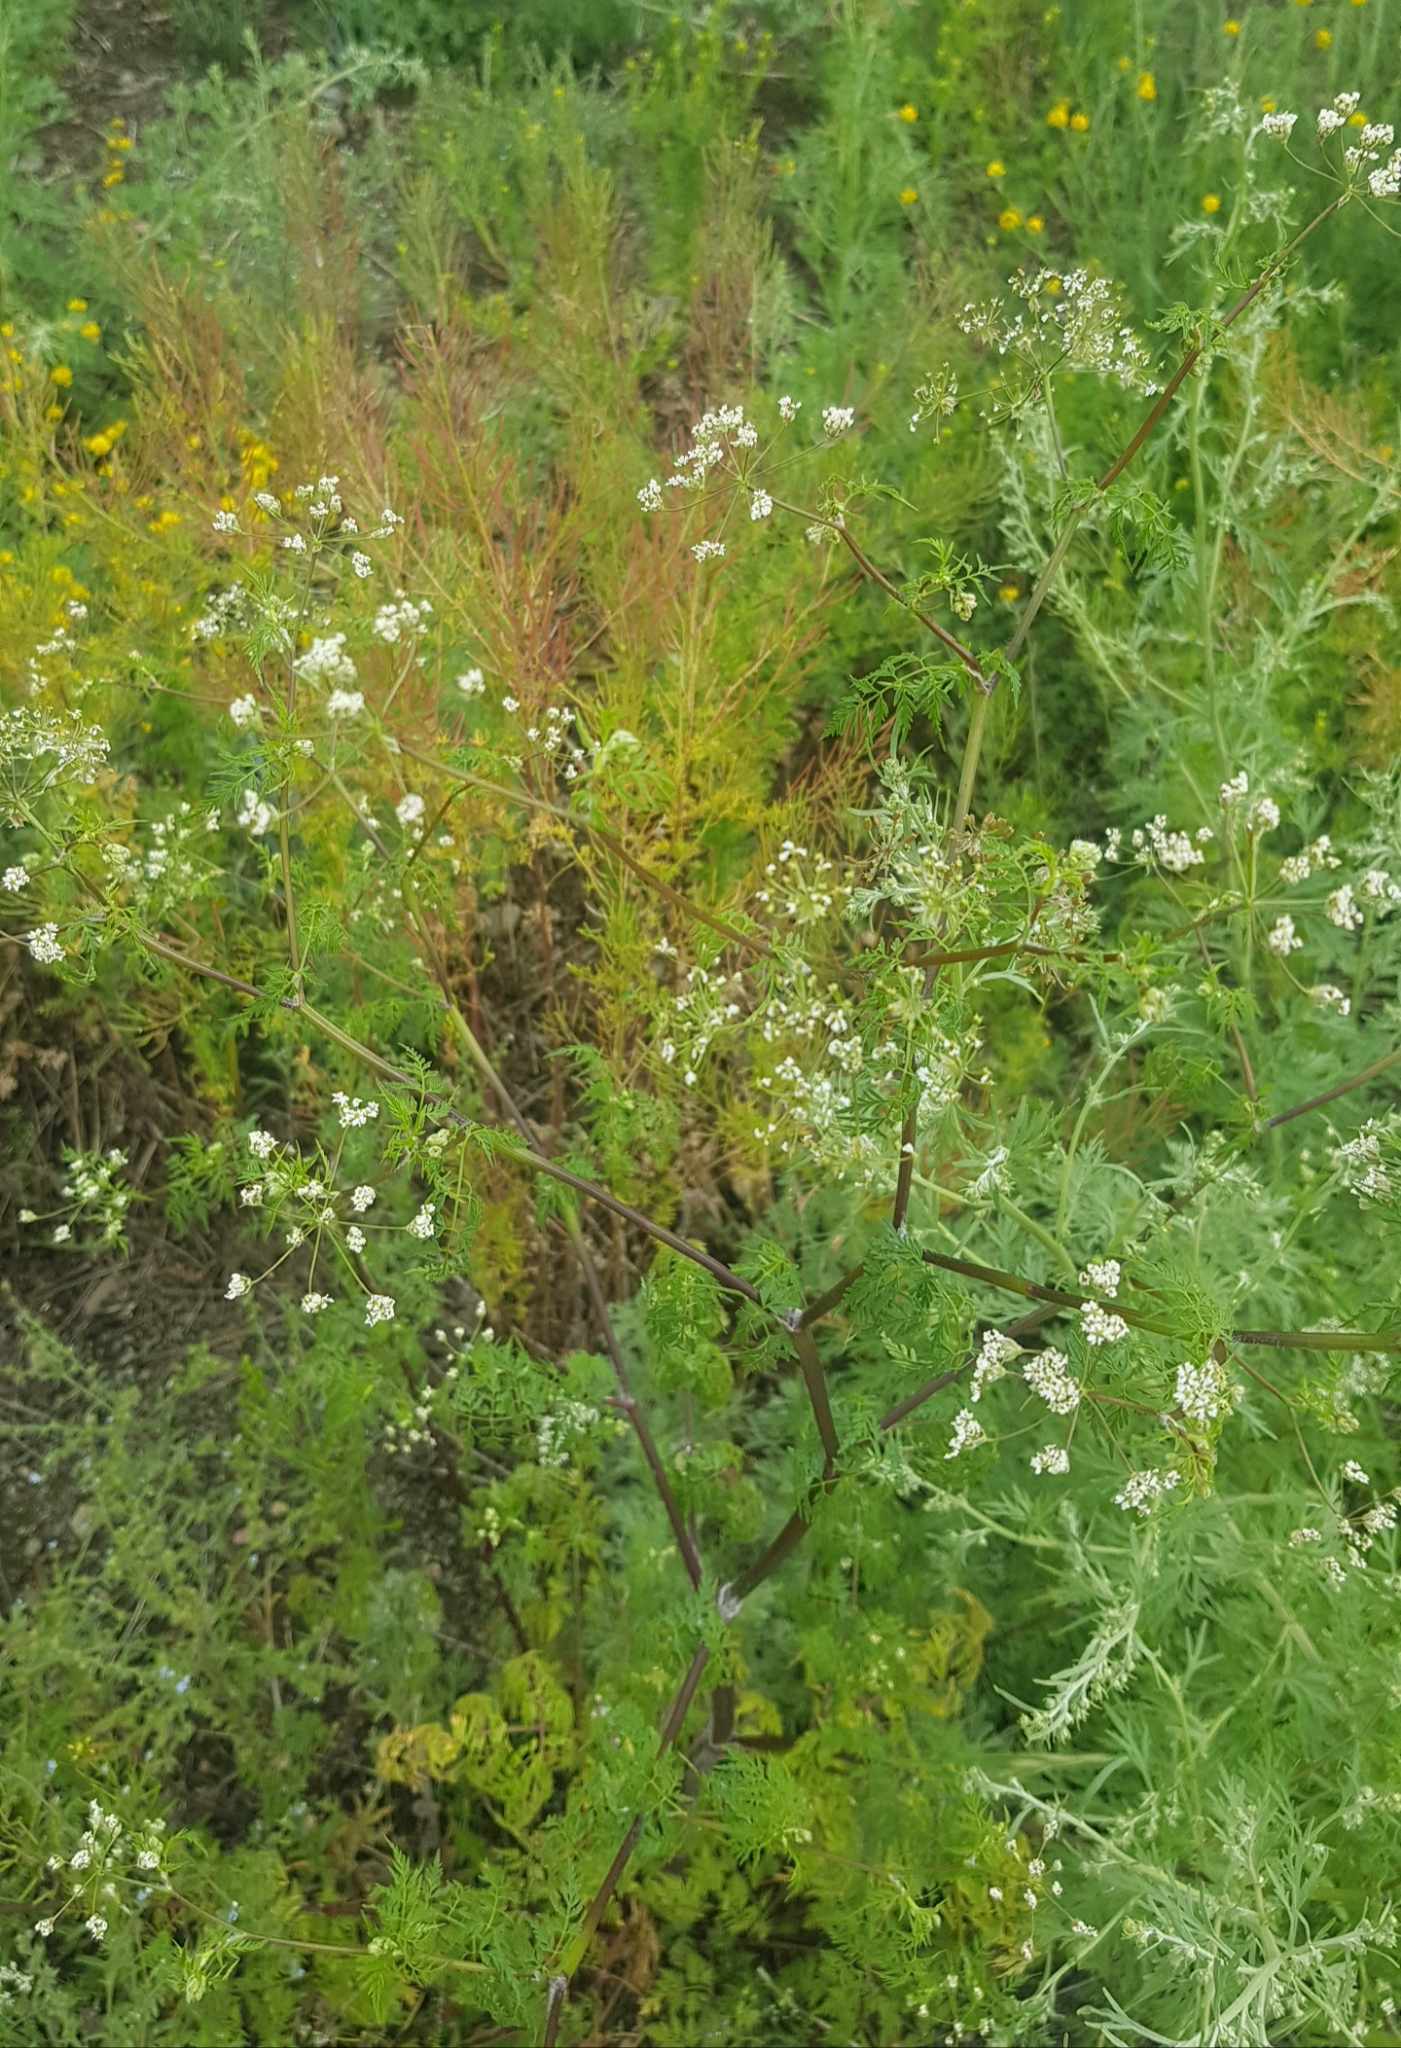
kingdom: Plantae
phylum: Tracheophyta
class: Magnoliopsida
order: Apiales
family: Apiaceae
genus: Sphallerocarpus
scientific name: Sphallerocarpus gracilis
